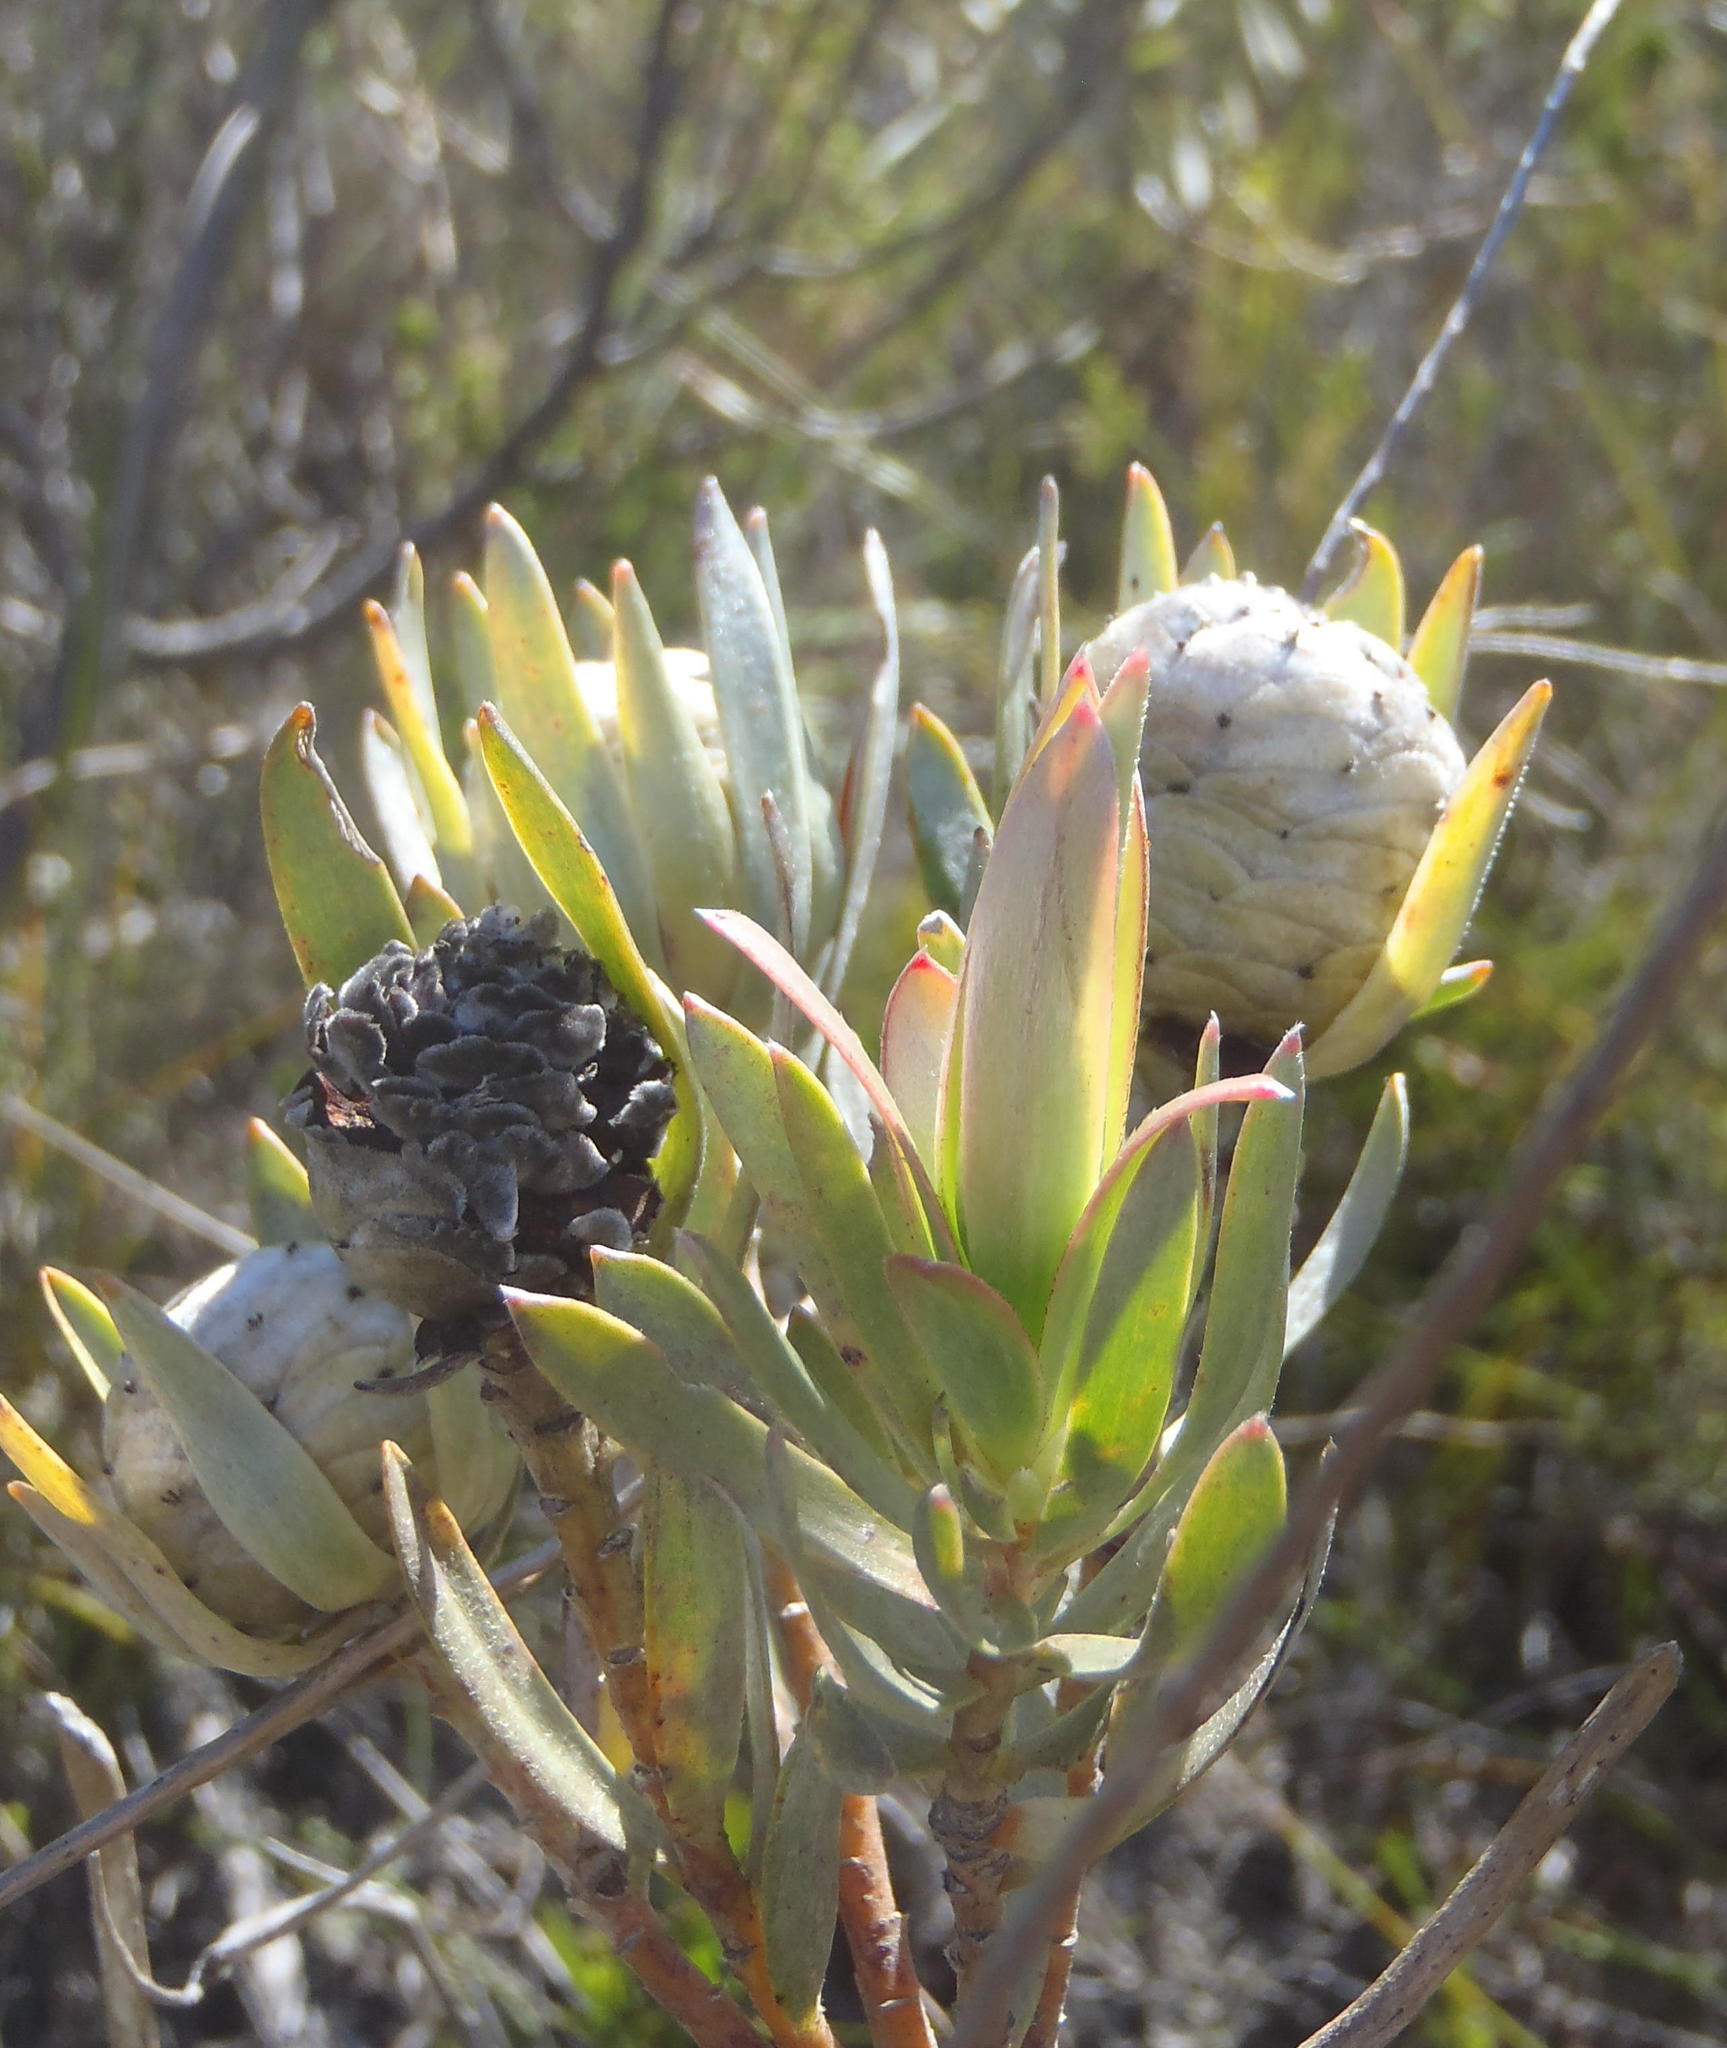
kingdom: Plantae
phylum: Tracheophyta
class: Magnoliopsida
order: Proteales
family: Proteaceae
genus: Leucadendron
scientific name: Leucadendron uliginosum
